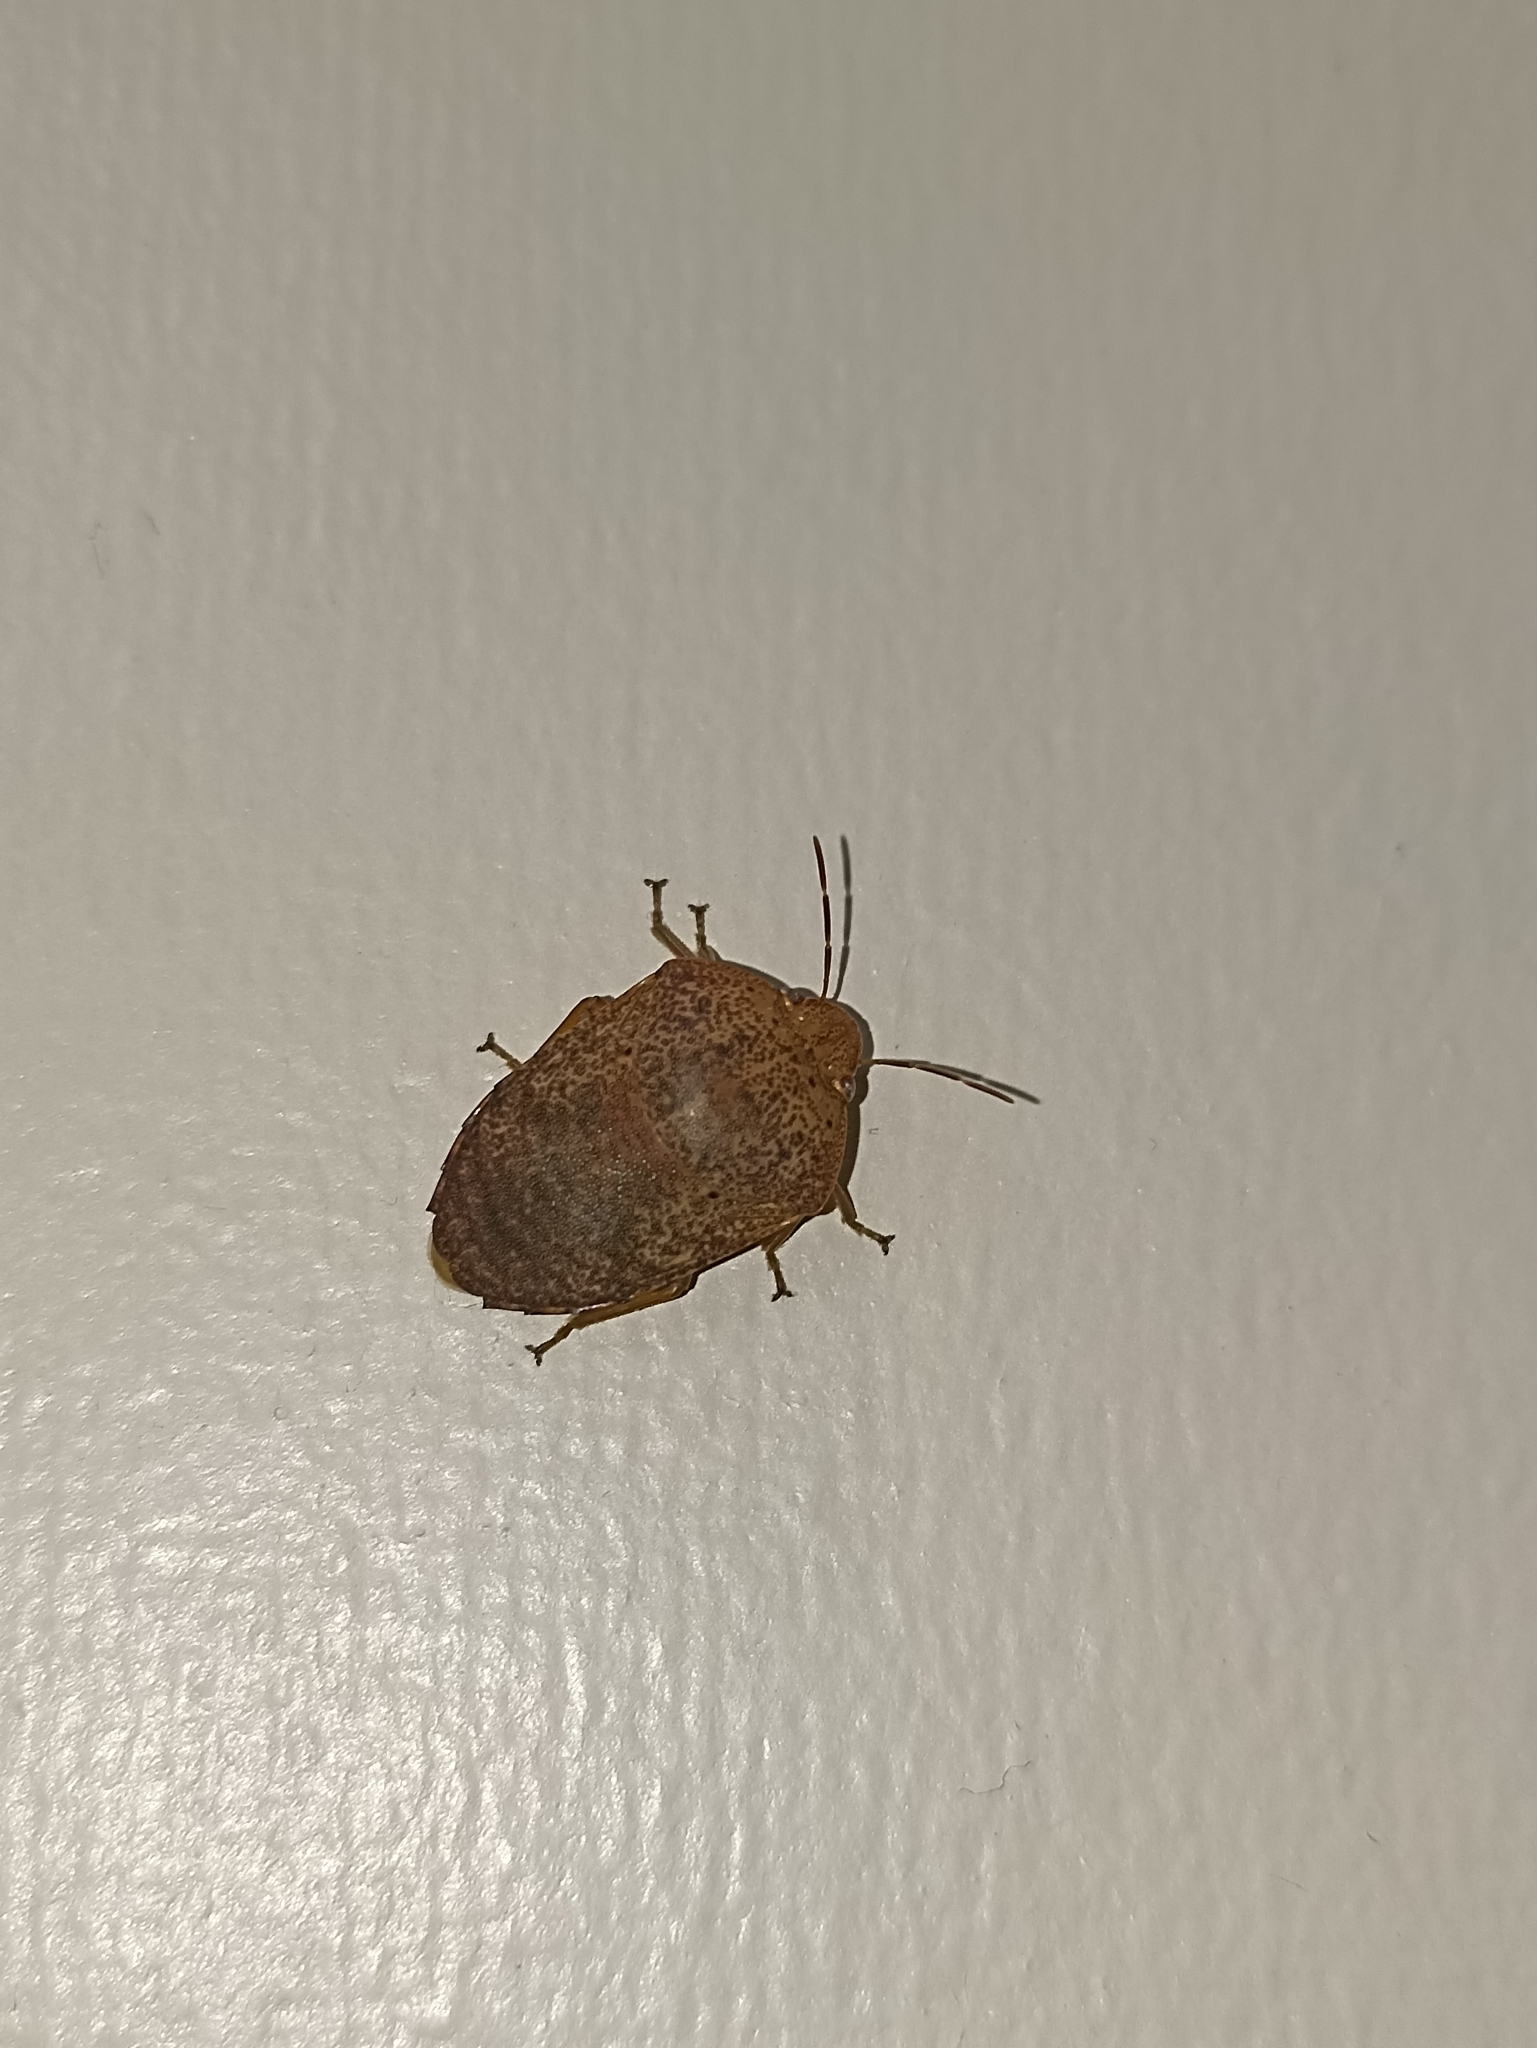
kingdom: Animalia
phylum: Arthropoda
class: Insecta
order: Hemiptera
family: Pentatomidae
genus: Coleotichus
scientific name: Coleotichus artensis
